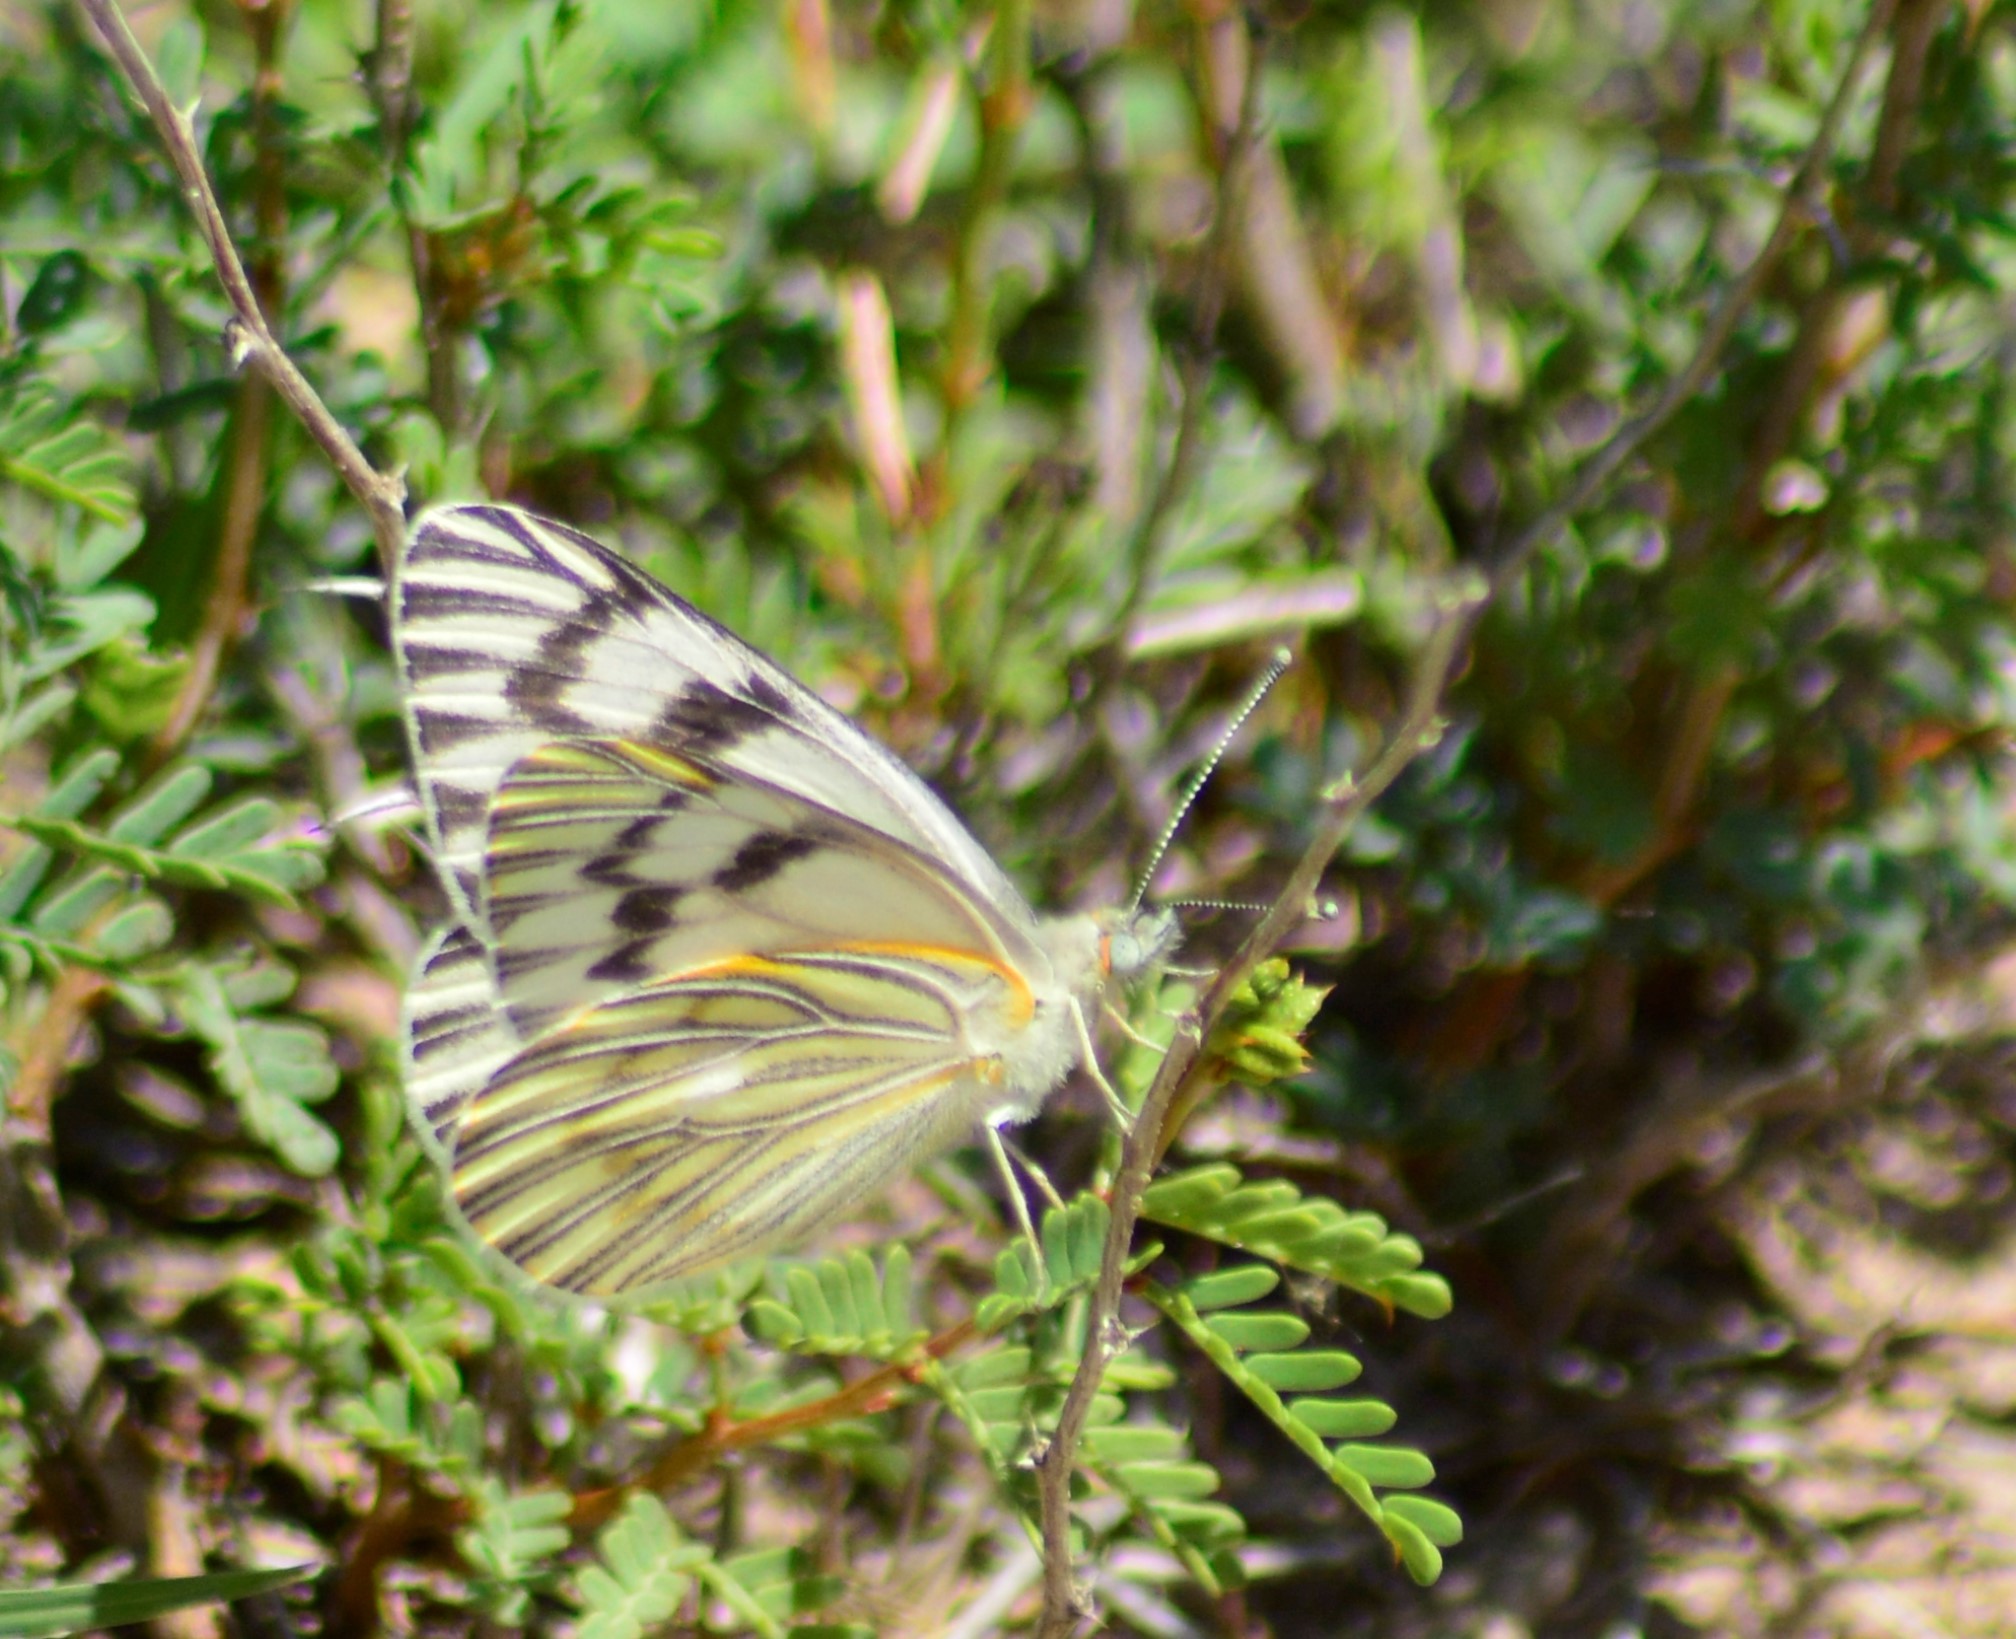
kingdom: Animalia
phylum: Arthropoda
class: Insecta
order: Lepidoptera
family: Pieridae
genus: Tatochila
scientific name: Tatochila mercedis
